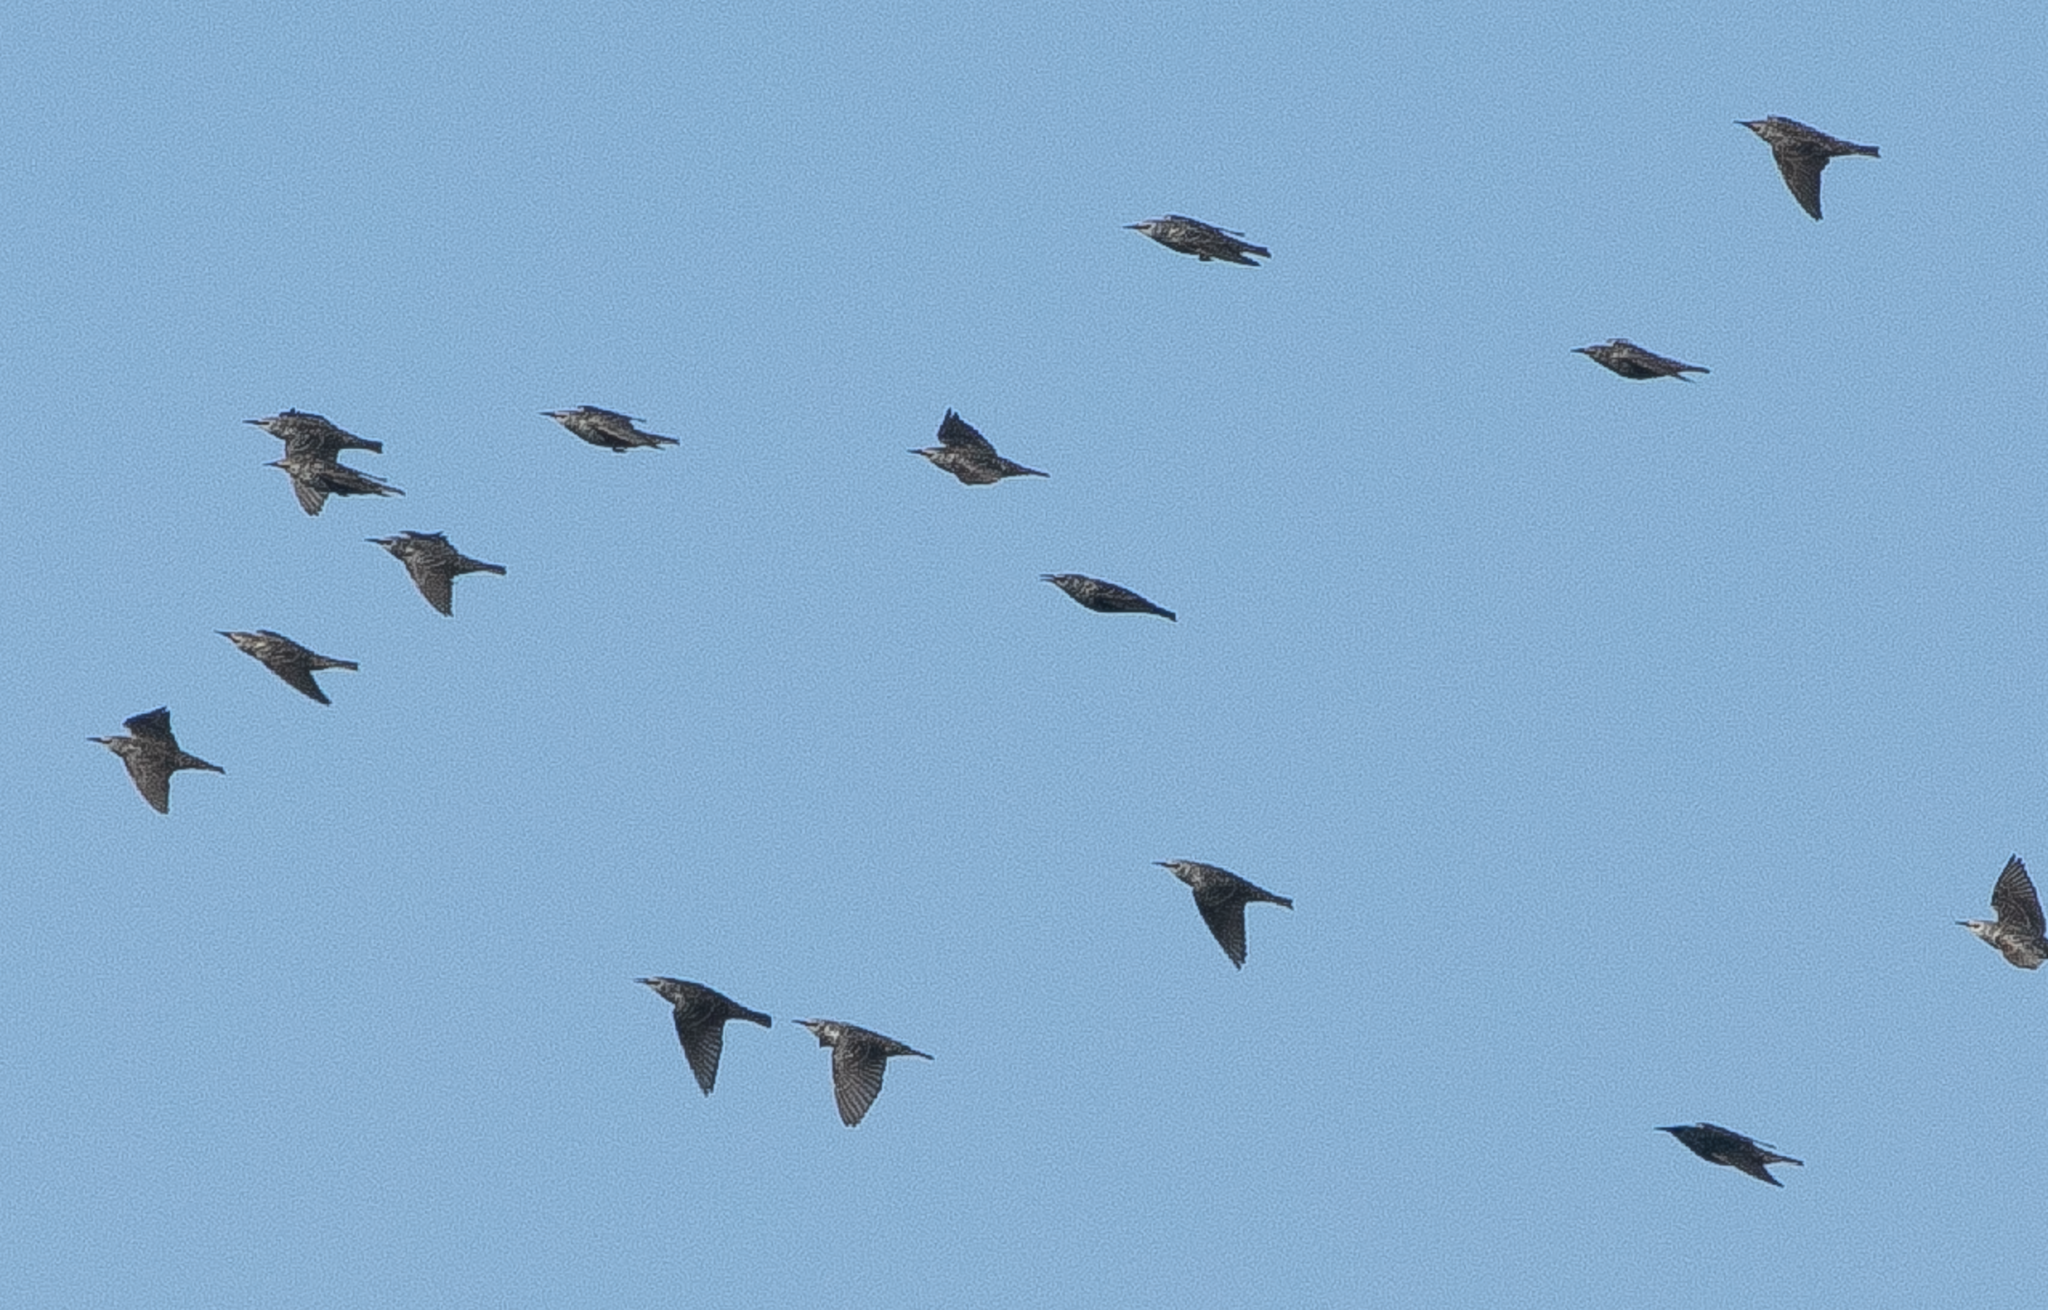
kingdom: Animalia
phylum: Chordata
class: Aves
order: Passeriformes
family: Sturnidae
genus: Sturnus
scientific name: Sturnus vulgaris
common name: Common starling
